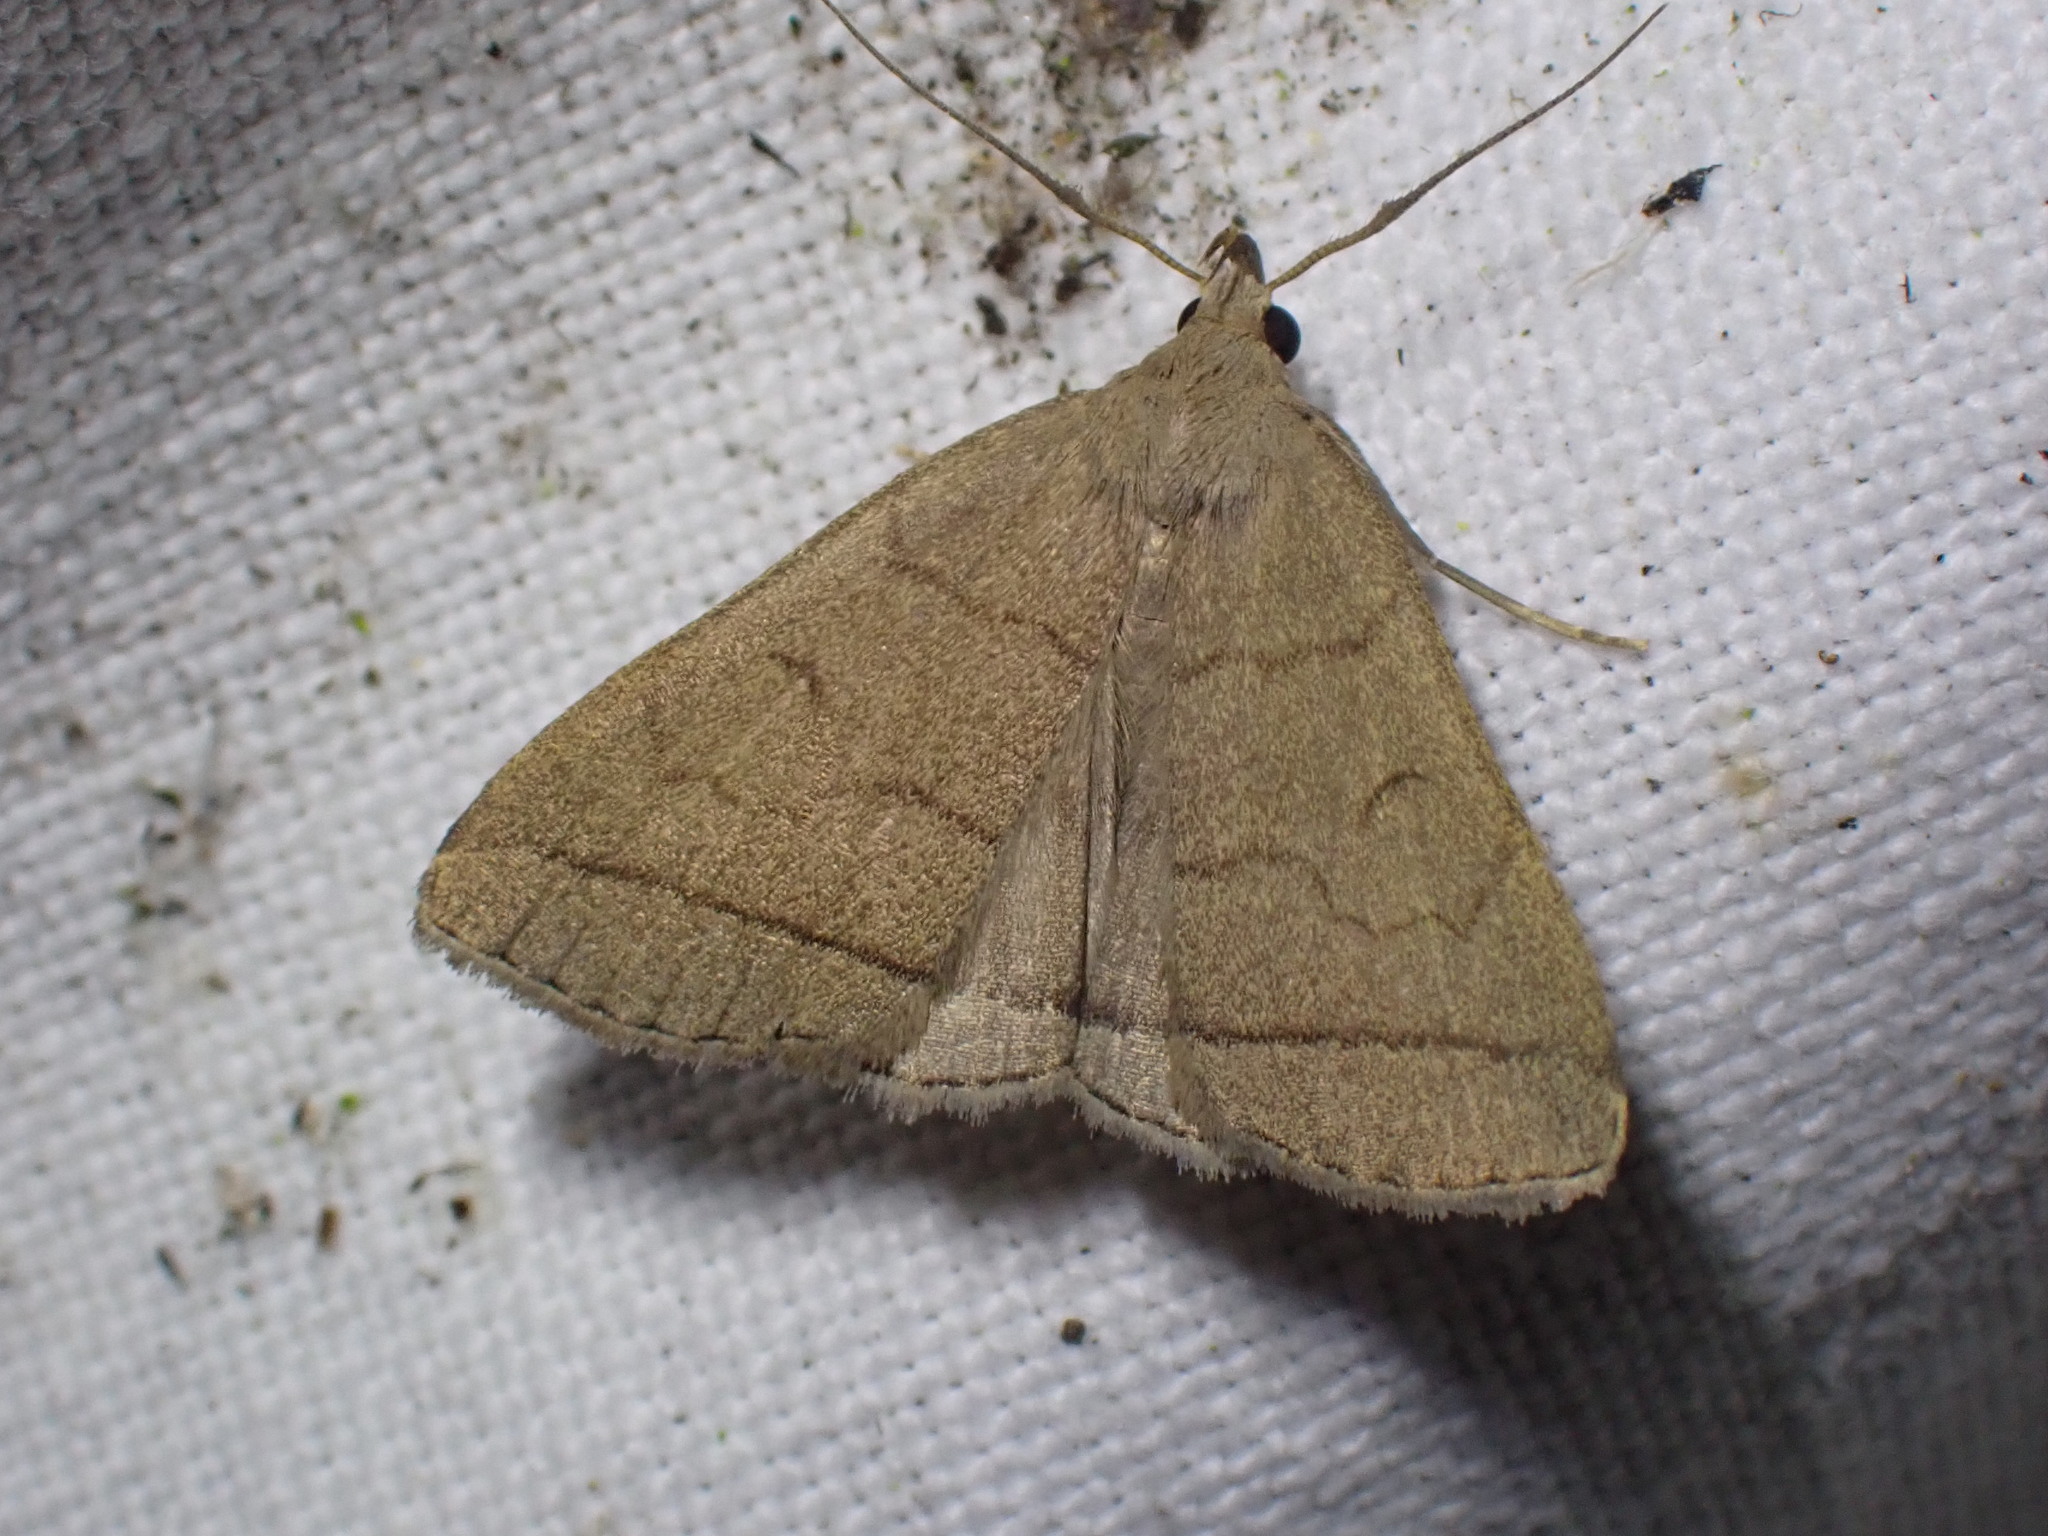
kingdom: Animalia
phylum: Arthropoda
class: Insecta
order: Lepidoptera
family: Erebidae
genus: Herminia
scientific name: Herminia tarsipennalis
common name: Fan-foot
